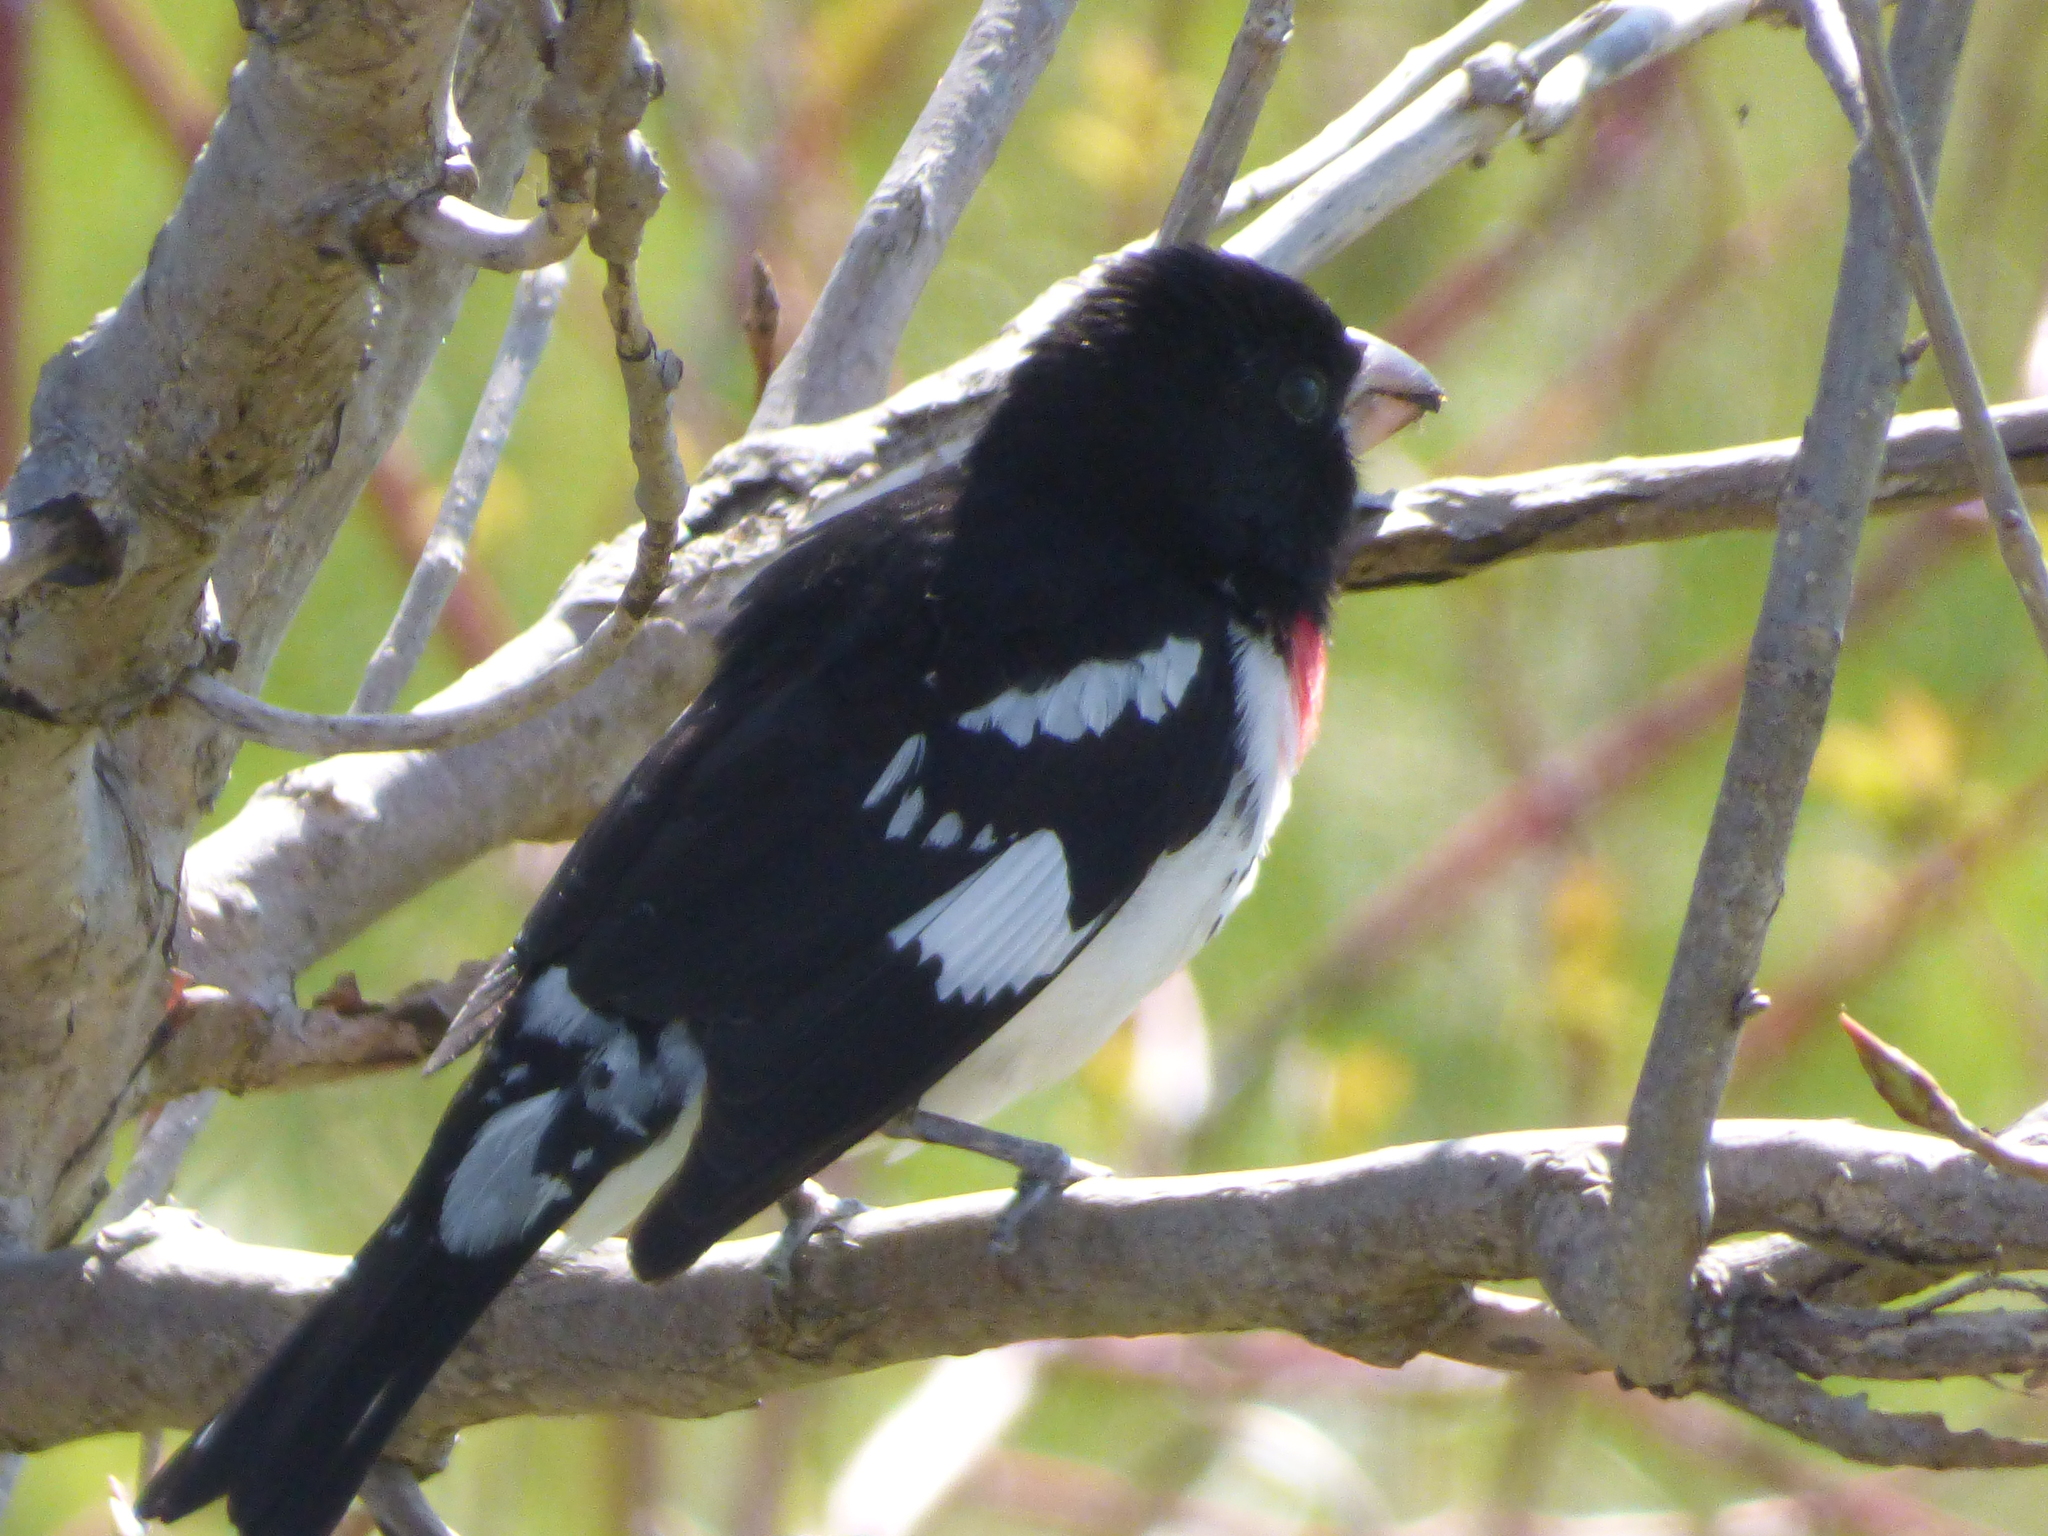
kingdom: Animalia
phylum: Chordata
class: Aves
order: Passeriformes
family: Cardinalidae
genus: Pheucticus
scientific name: Pheucticus ludovicianus
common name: Rose-breasted grosbeak
